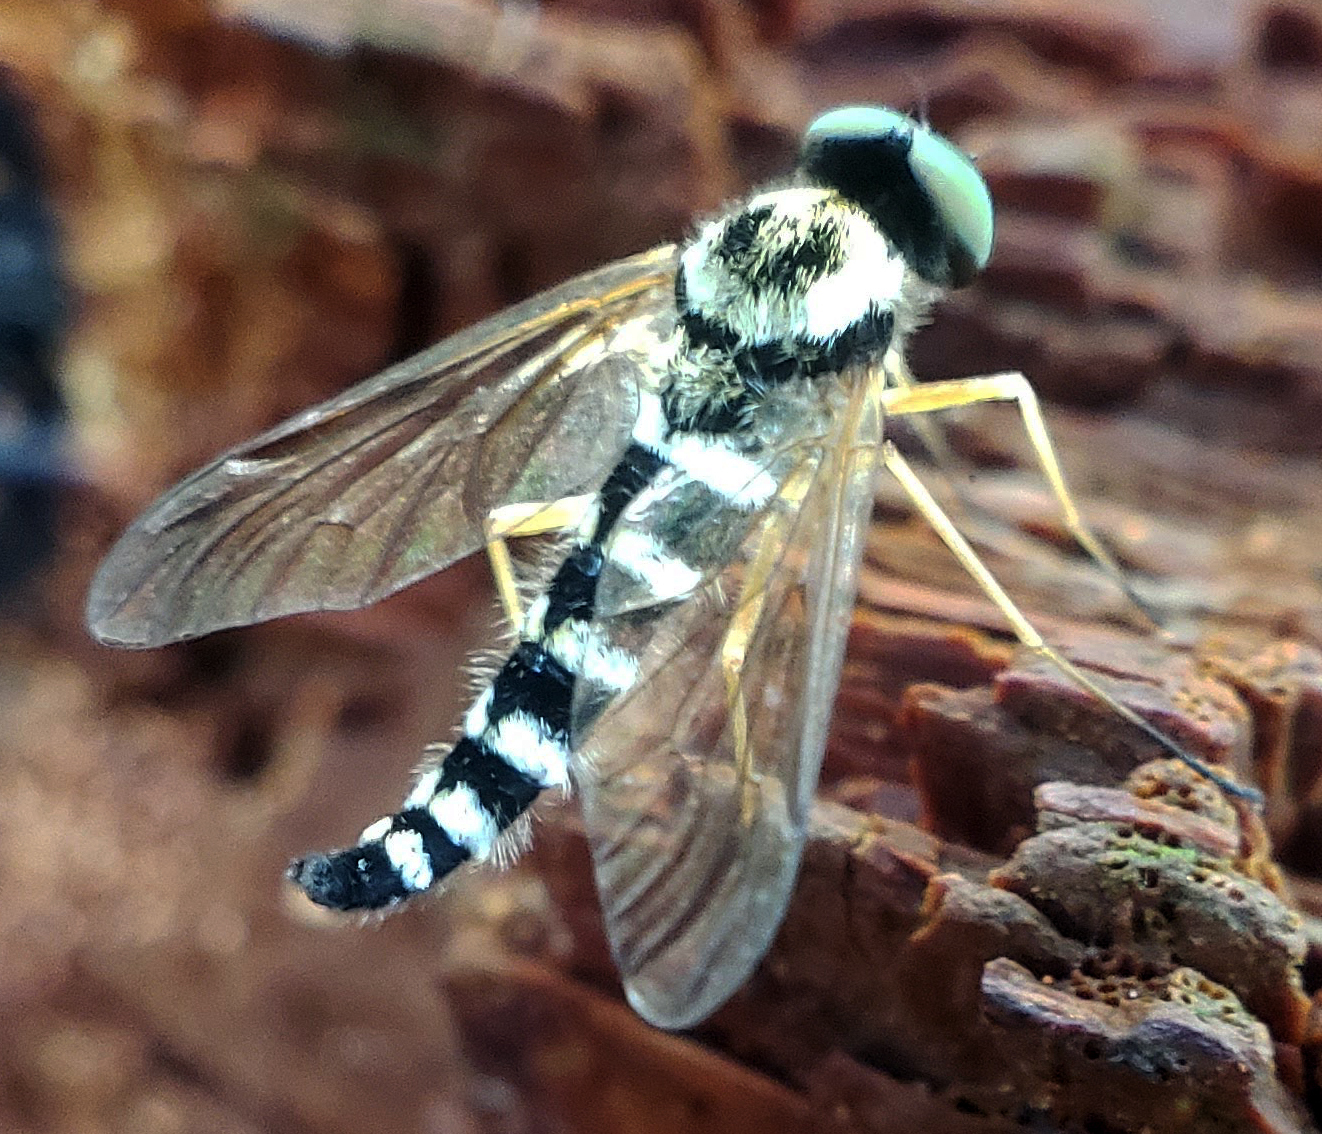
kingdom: Animalia
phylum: Arthropoda
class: Insecta
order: Diptera
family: Rhagionidae
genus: Chrysopilus
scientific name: Chrysopilus ornatus
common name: Ornate snipe fly
